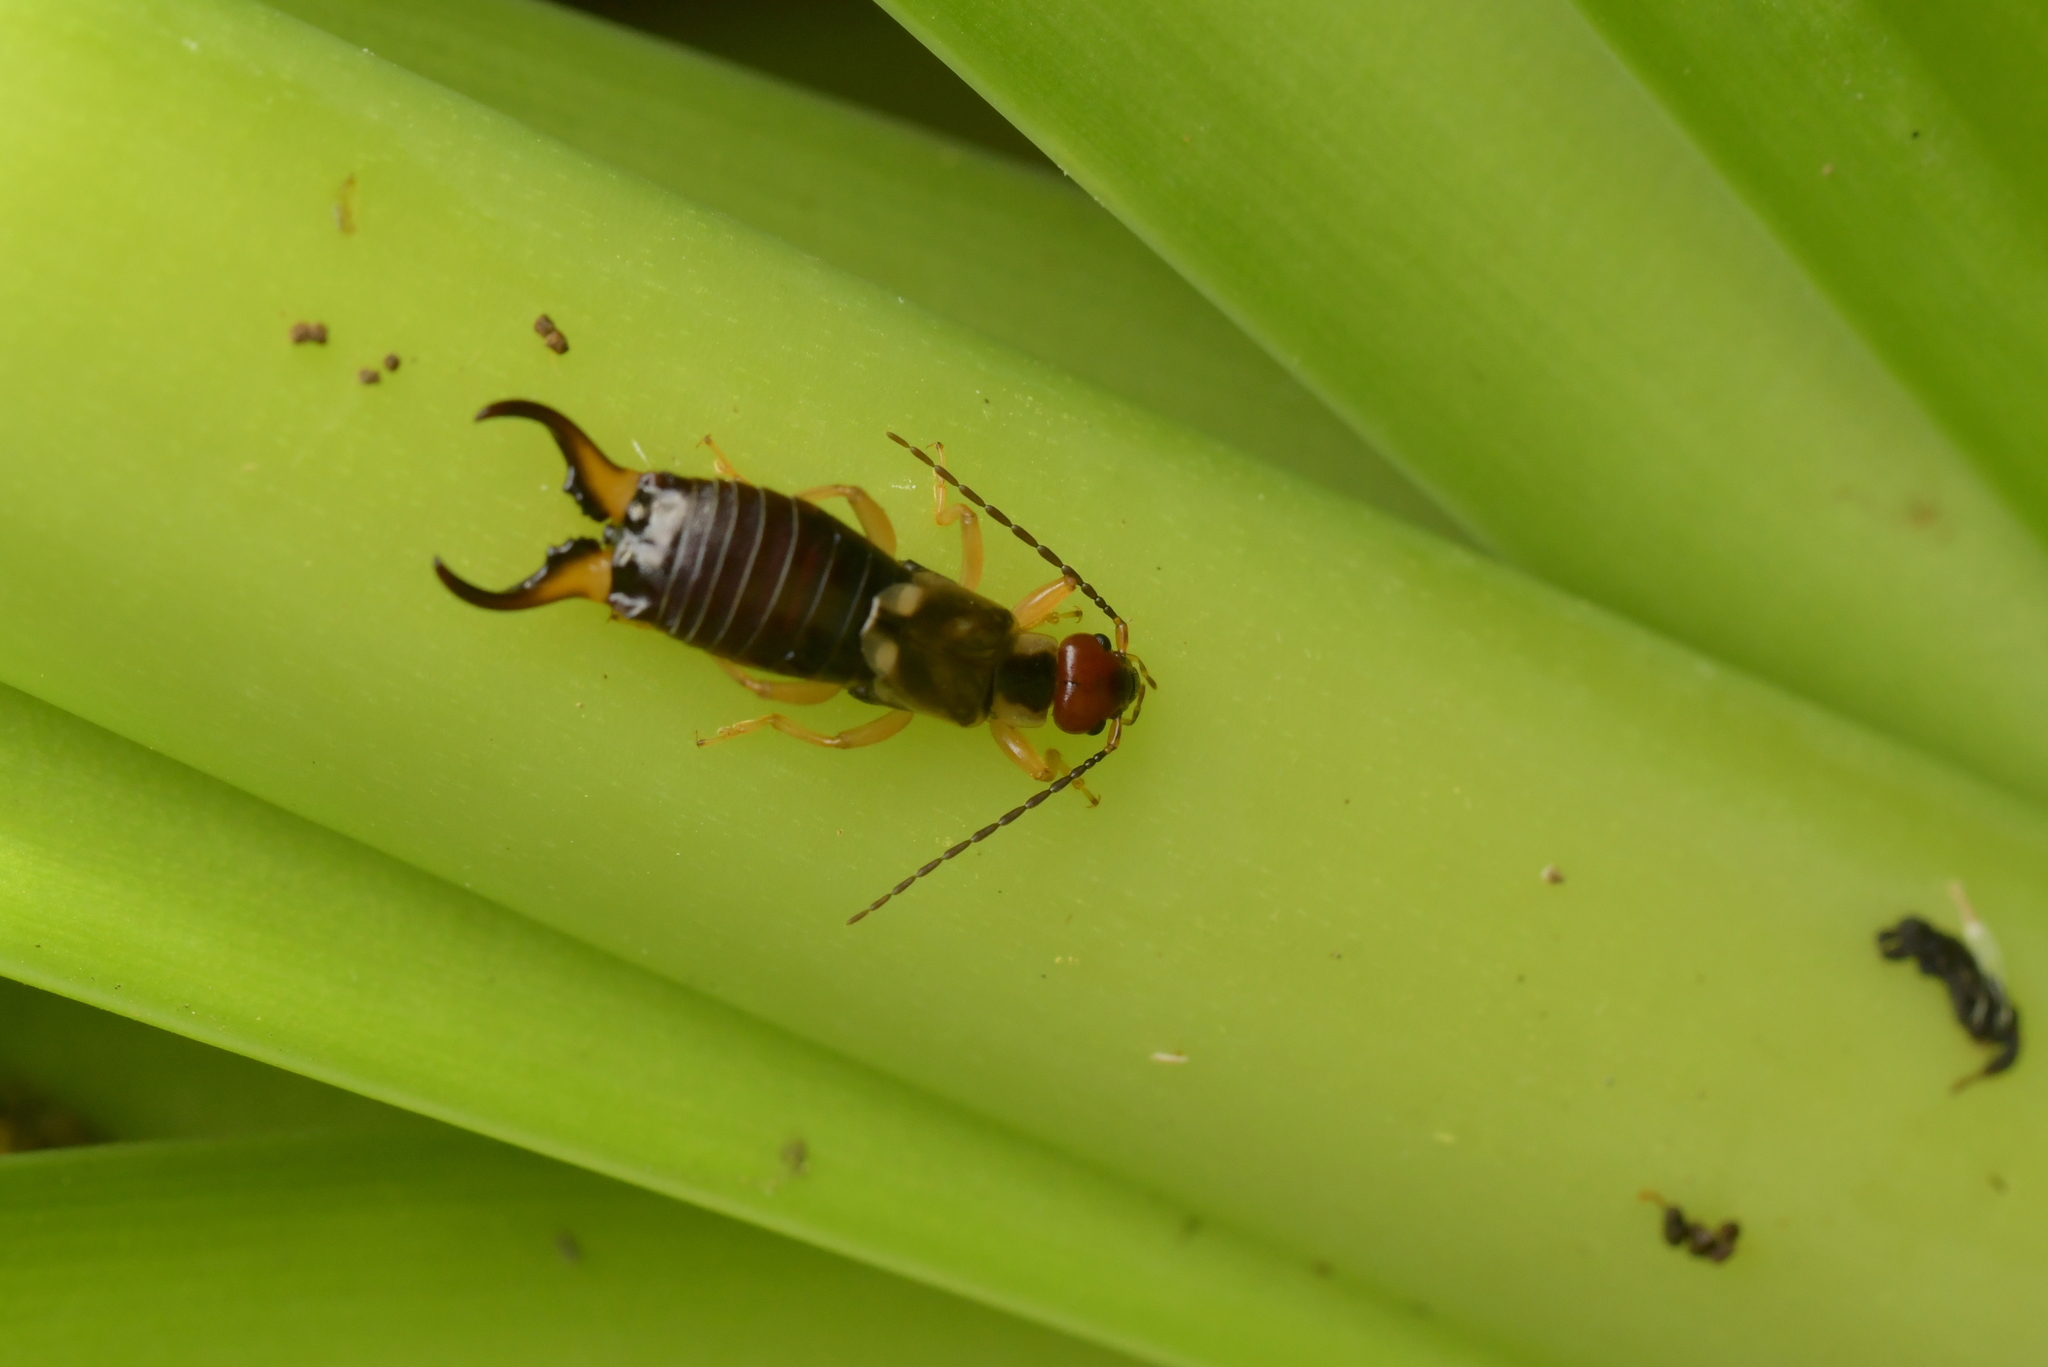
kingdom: Animalia
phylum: Arthropoda
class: Insecta
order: Dermaptera
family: Forficulidae
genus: Forficula
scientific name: Forficula
